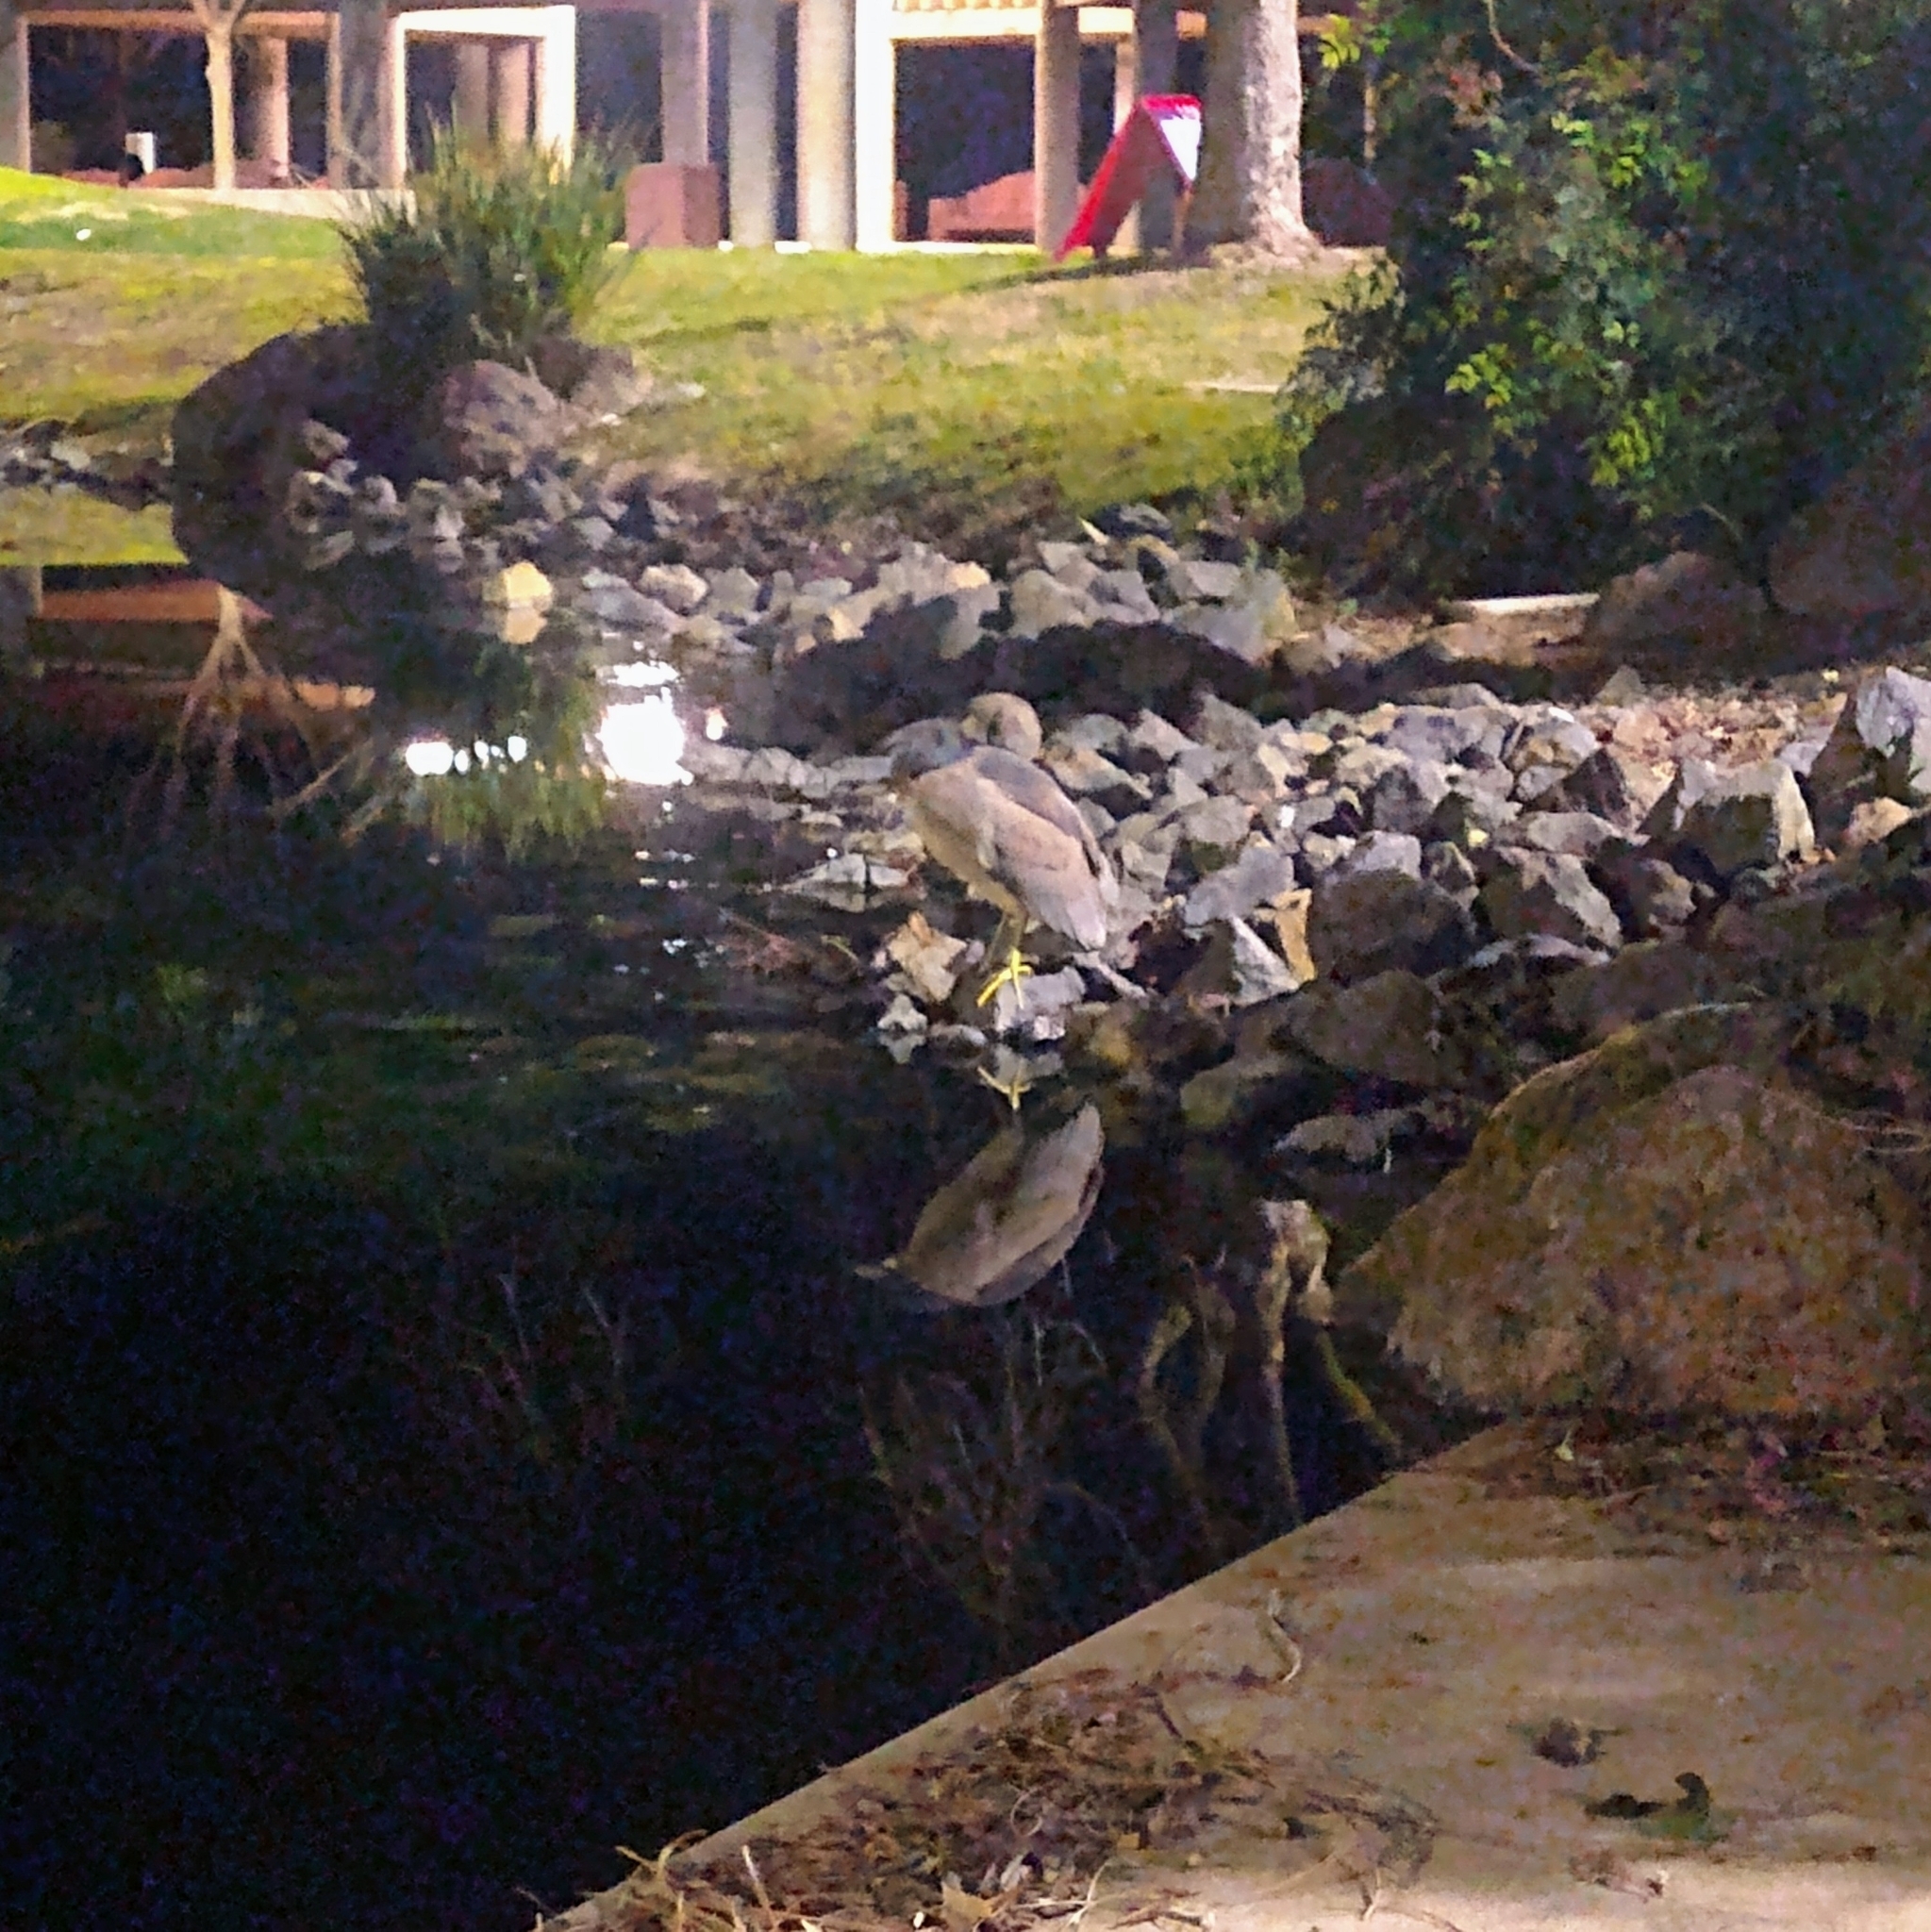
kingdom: Animalia
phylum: Chordata
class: Aves
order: Pelecaniformes
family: Ardeidae
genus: Nycticorax
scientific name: Nycticorax nycticorax
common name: Black-crowned night heron
